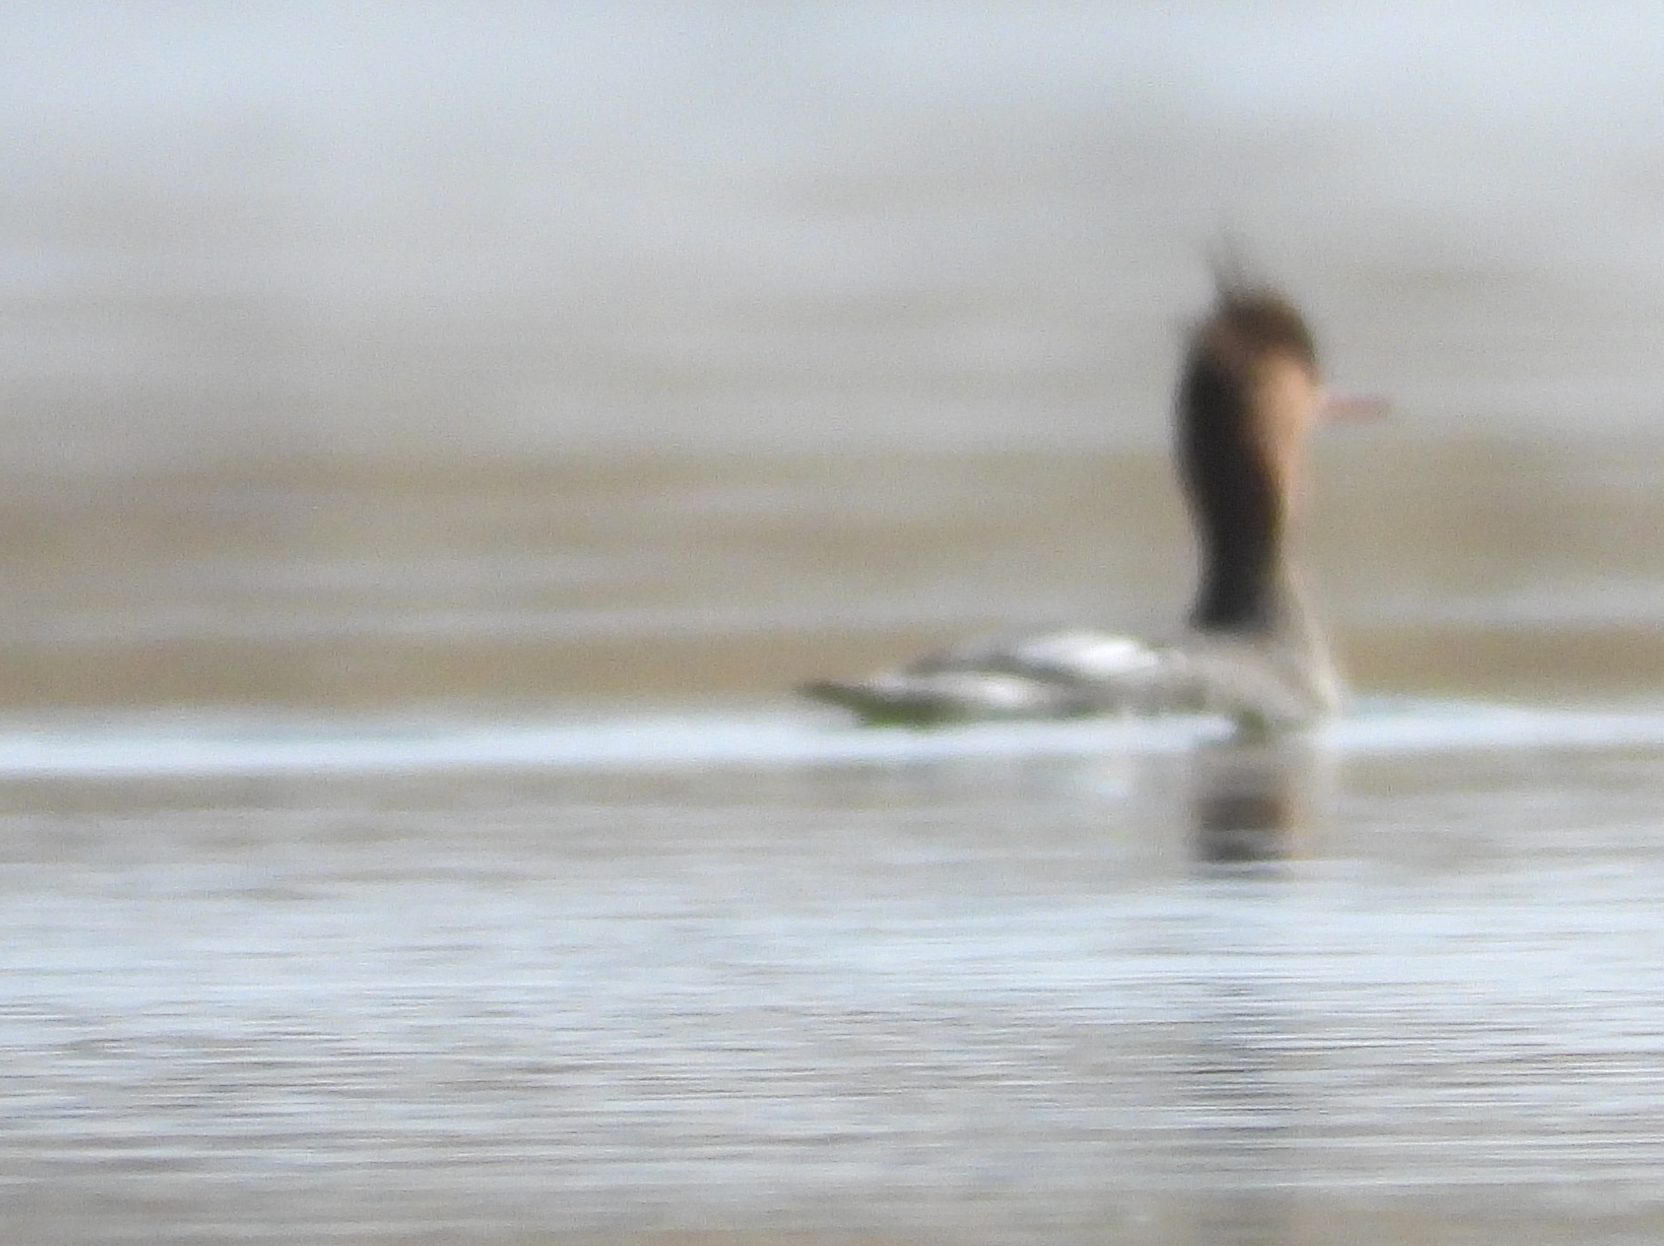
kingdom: Animalia
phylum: Chordata
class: Aves
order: Anseriformes
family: Anatidae
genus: Mergus
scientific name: Mergus serrator
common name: Red-breasted merganser
